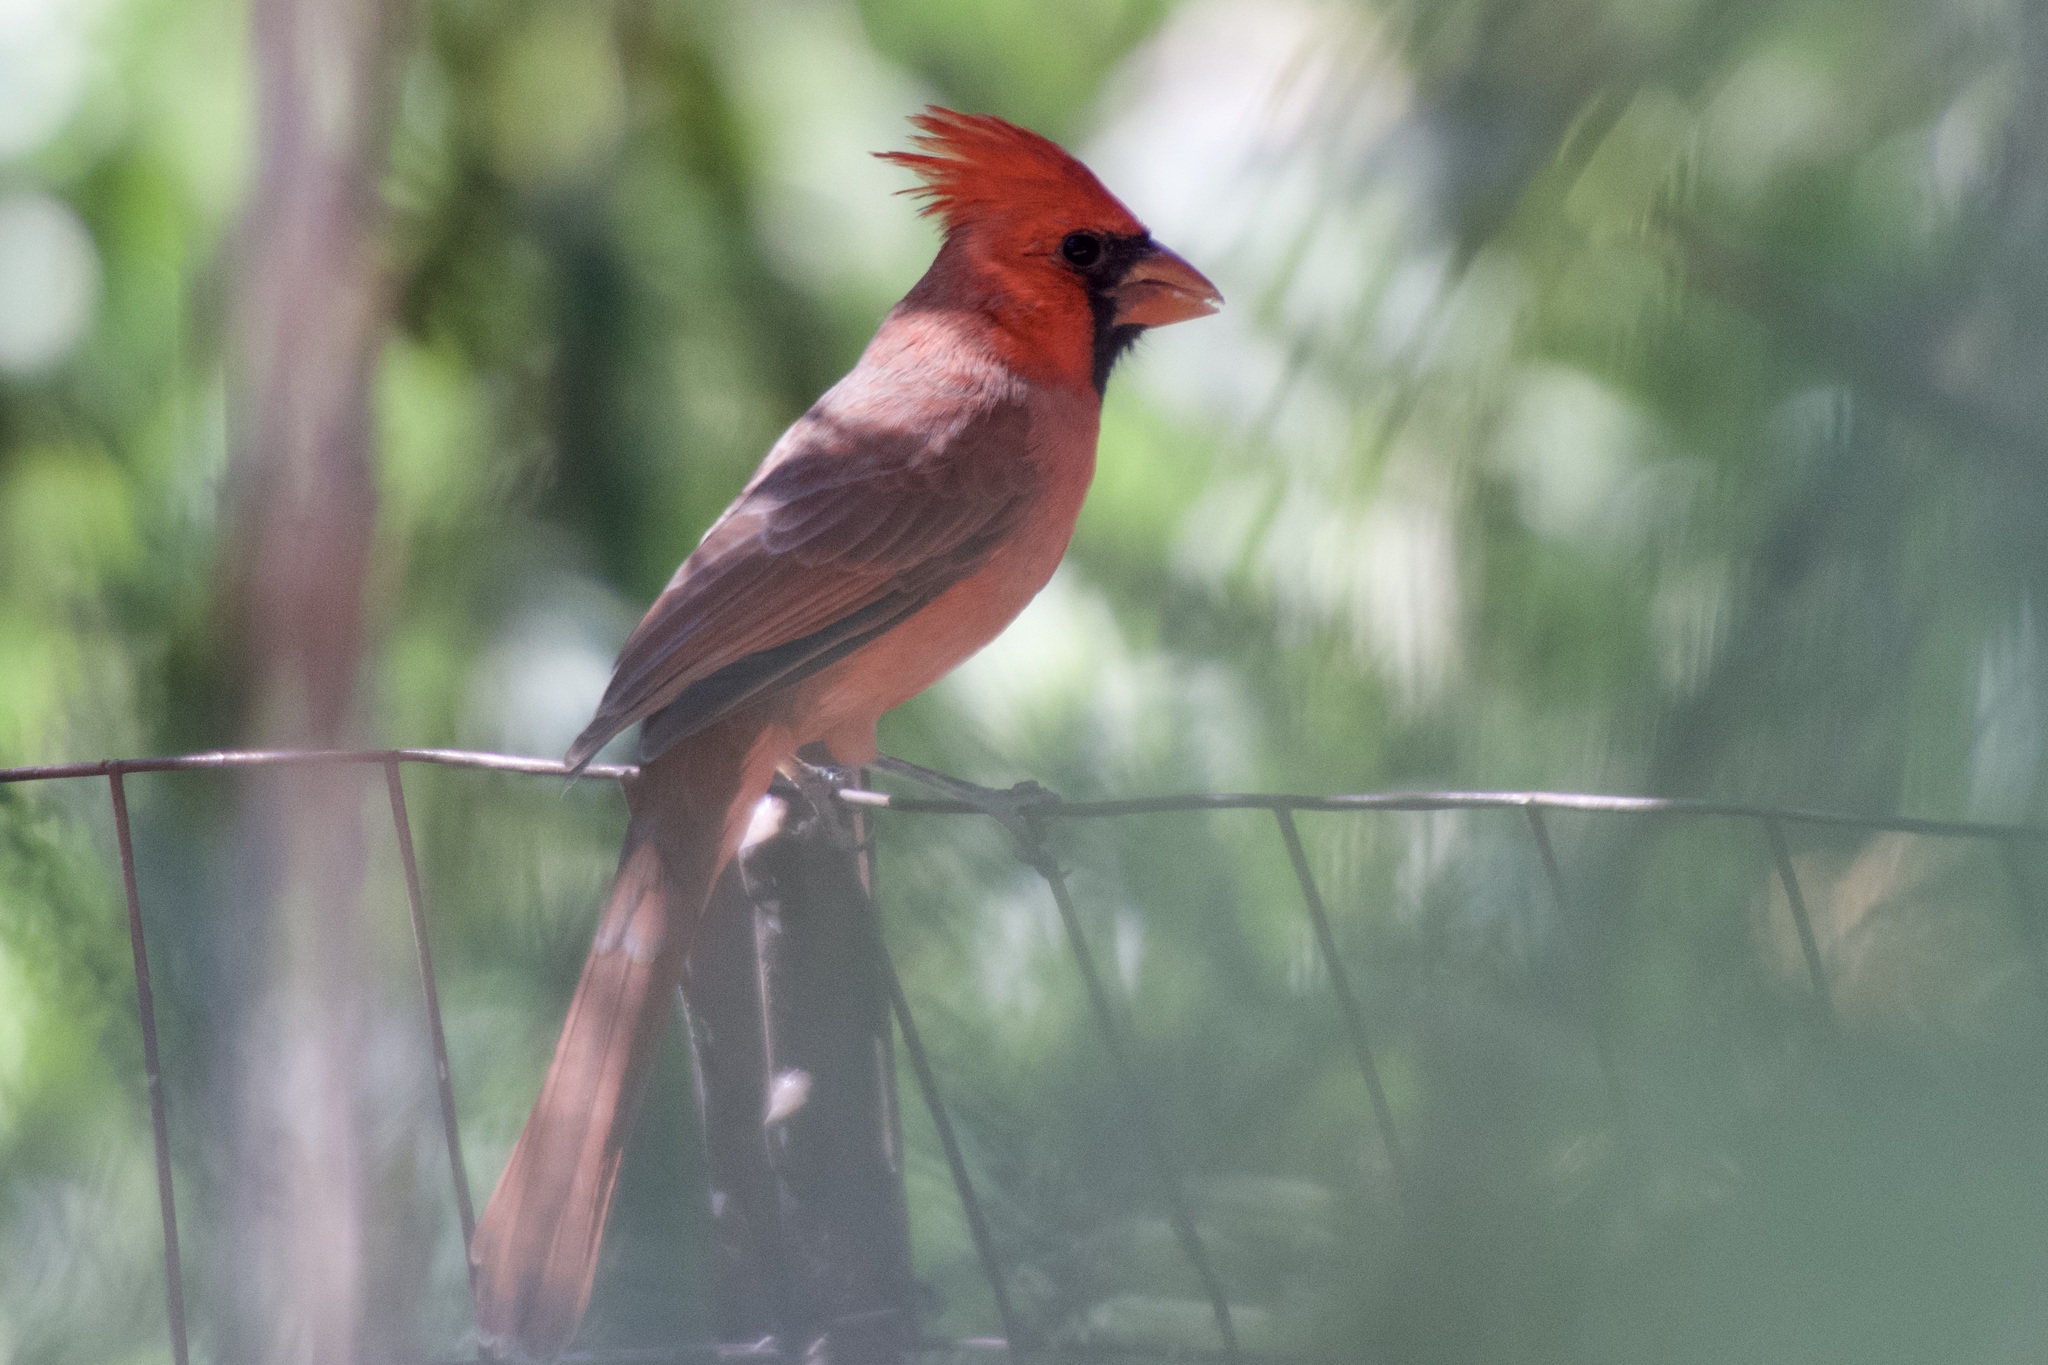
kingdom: Animalia
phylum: Chordata
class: Aves
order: Passeriformes
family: Cardinalidae
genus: Cardinalis
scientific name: Cardinalis cardinalis
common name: Northern cardinal
